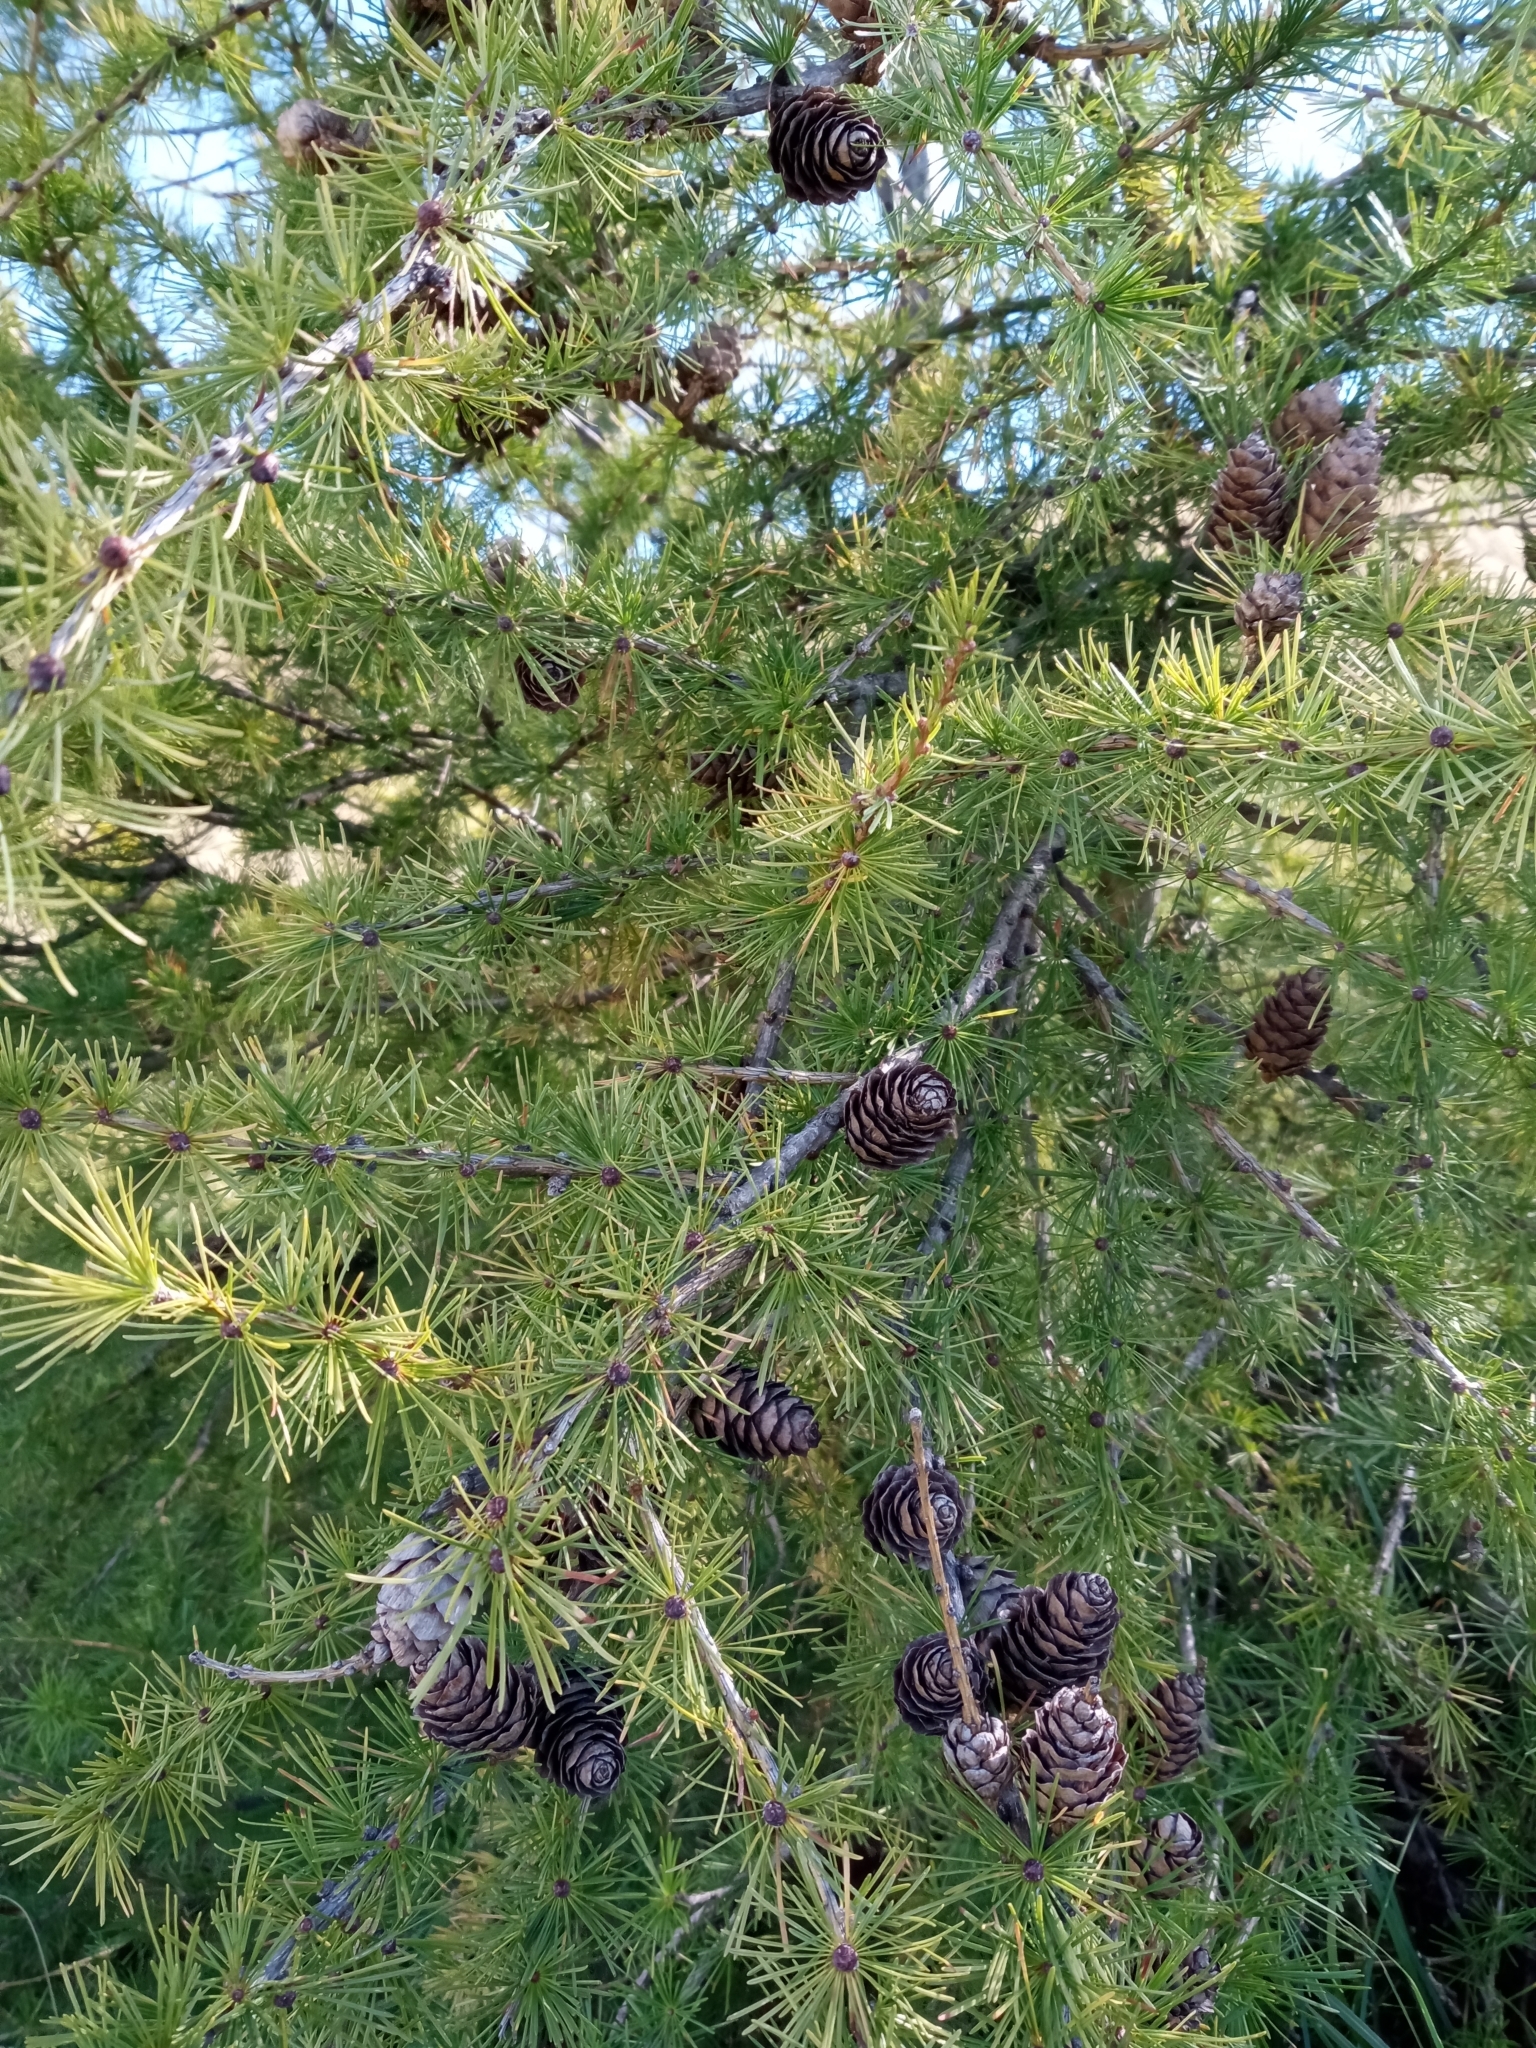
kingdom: Plantae
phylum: Tracheophyta
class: Pinopsida
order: Pinales
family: Pinaceae
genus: Larix
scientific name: Larix decidua
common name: European larch
